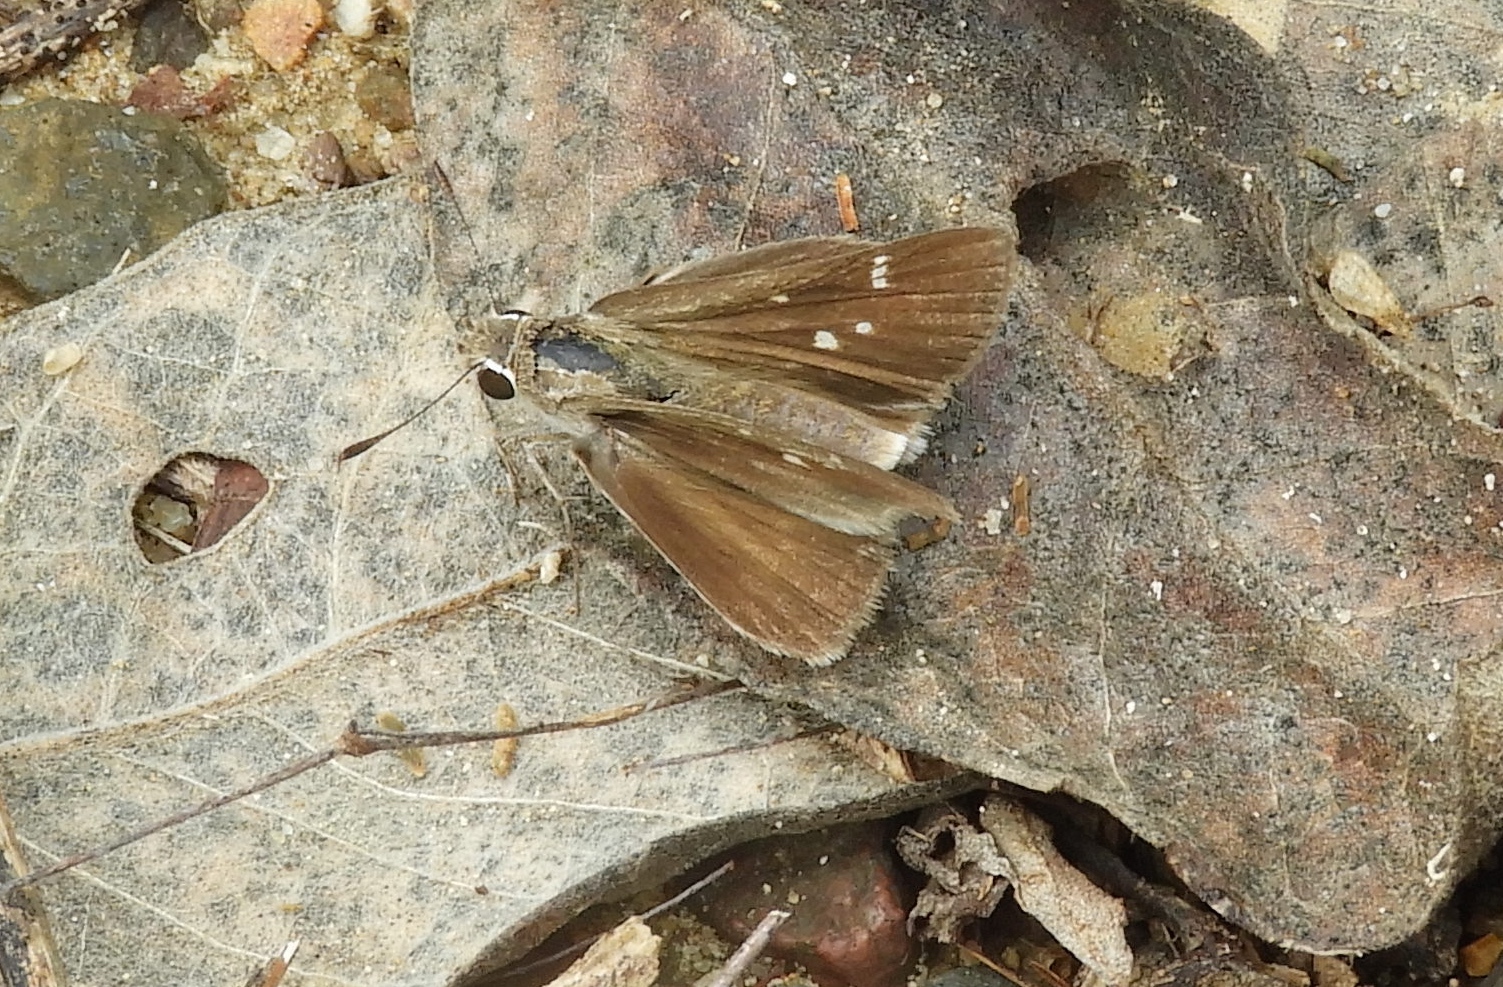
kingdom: Animalia
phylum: Arthropoda
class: Insecta
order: Lepidoptera
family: Hesperiidae
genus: Lerema
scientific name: Lerema
